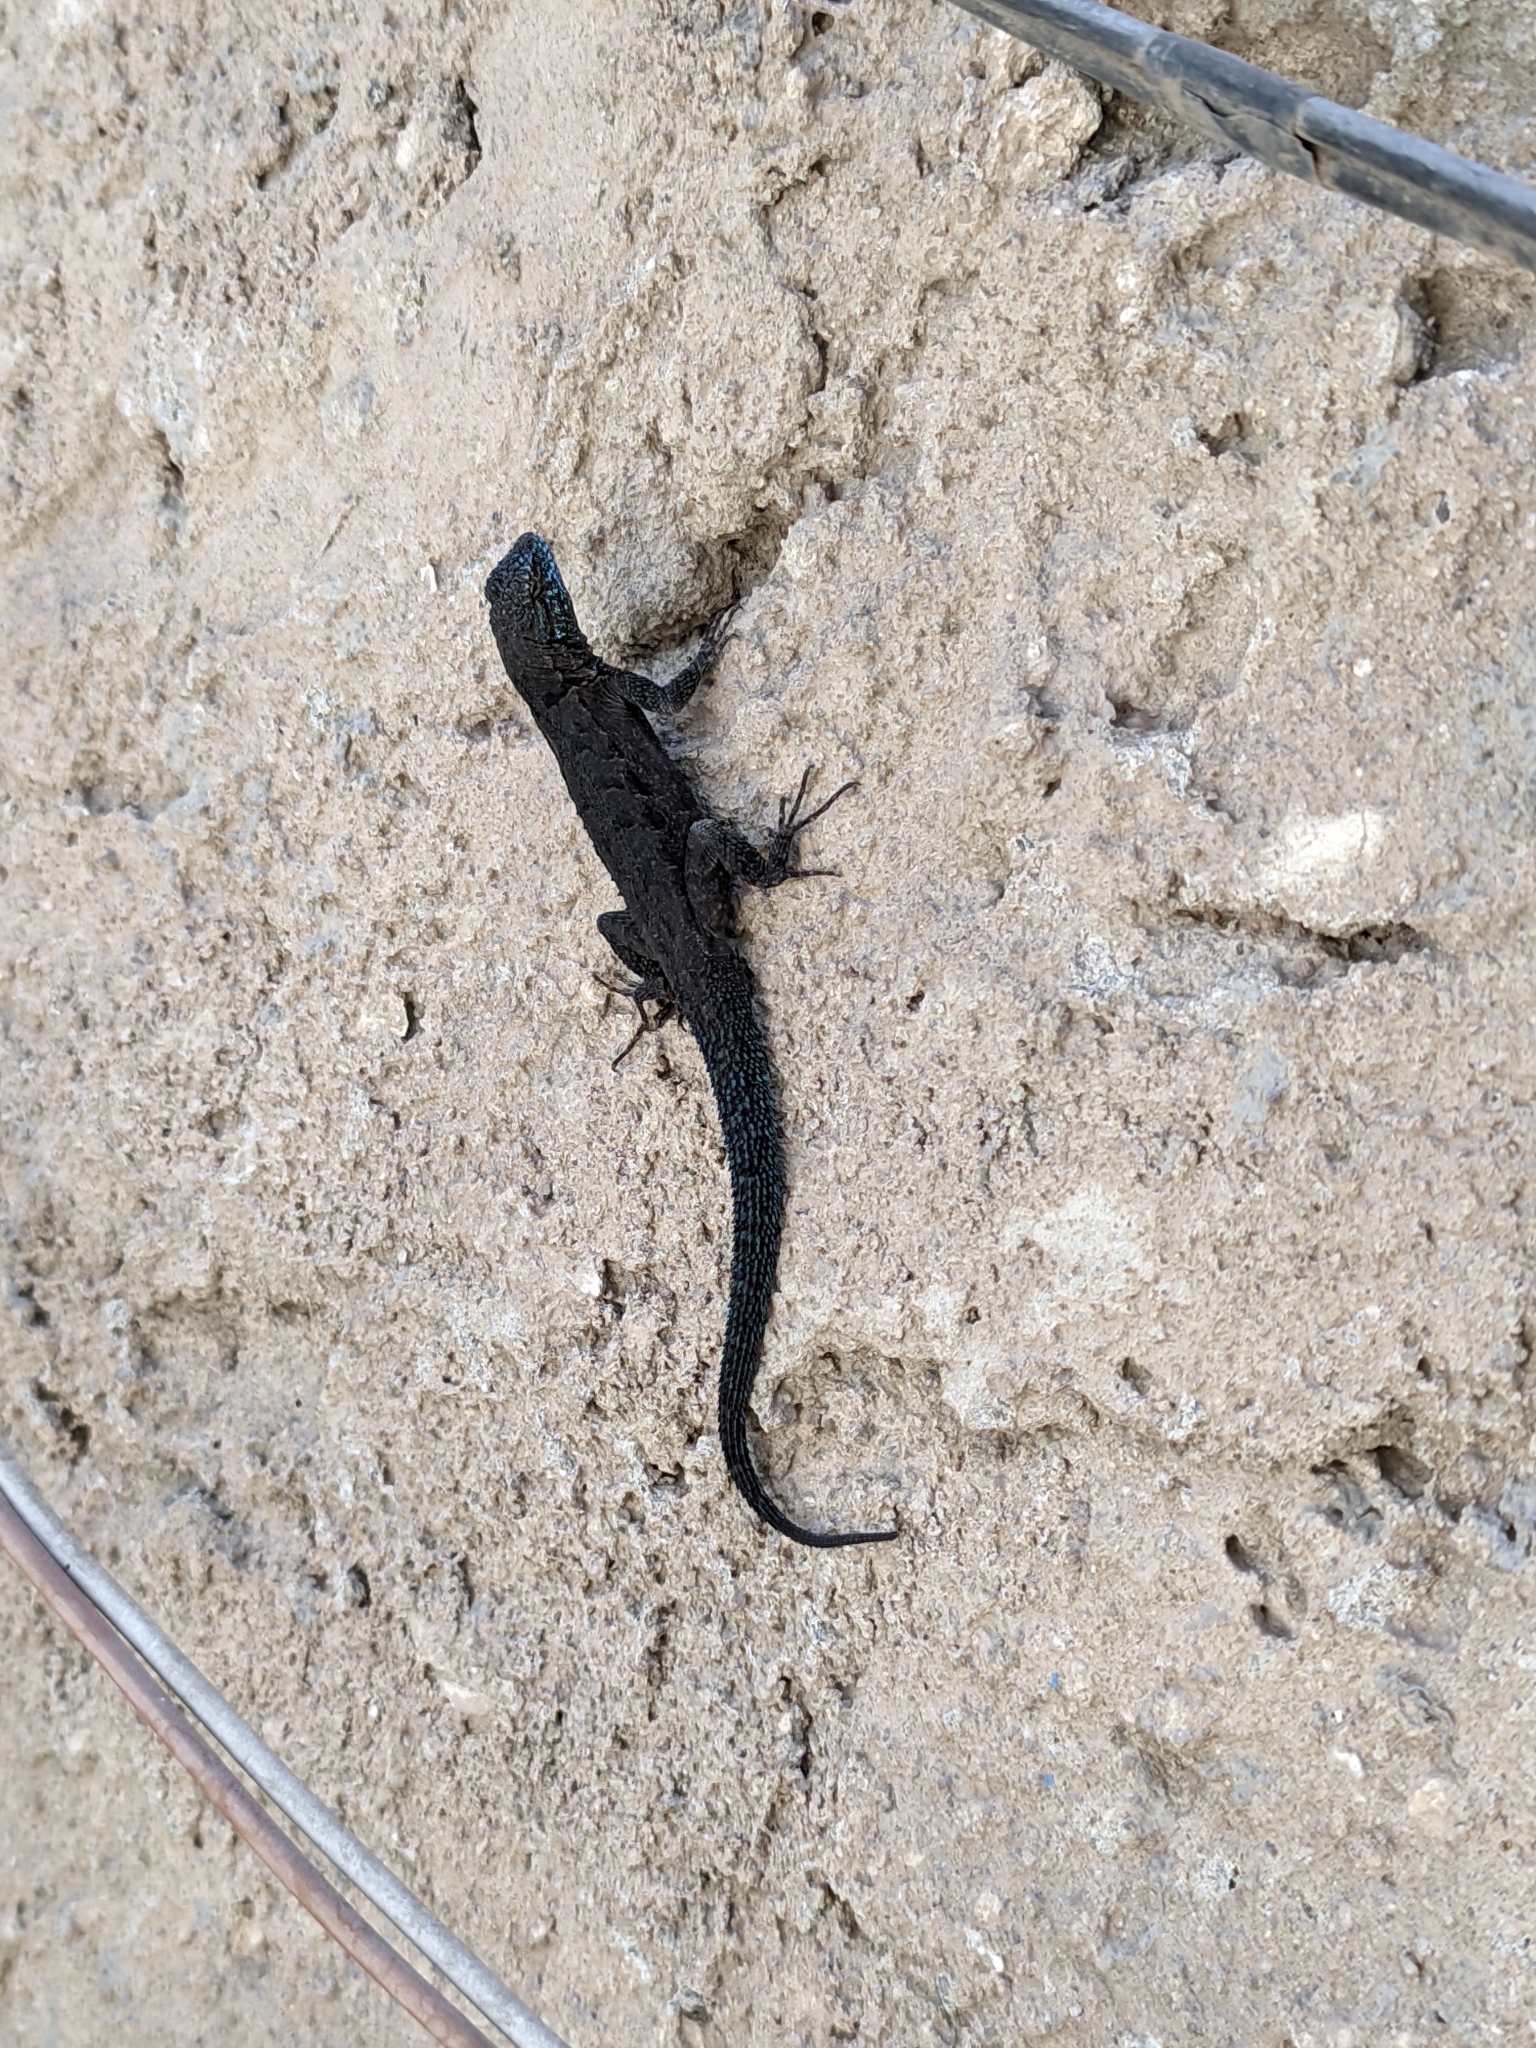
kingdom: Animalia
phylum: Chordata
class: Squamata
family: Phrynosomatidae
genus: Urosaurus
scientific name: Urosaurus ornatus
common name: Ornate tree lizard
